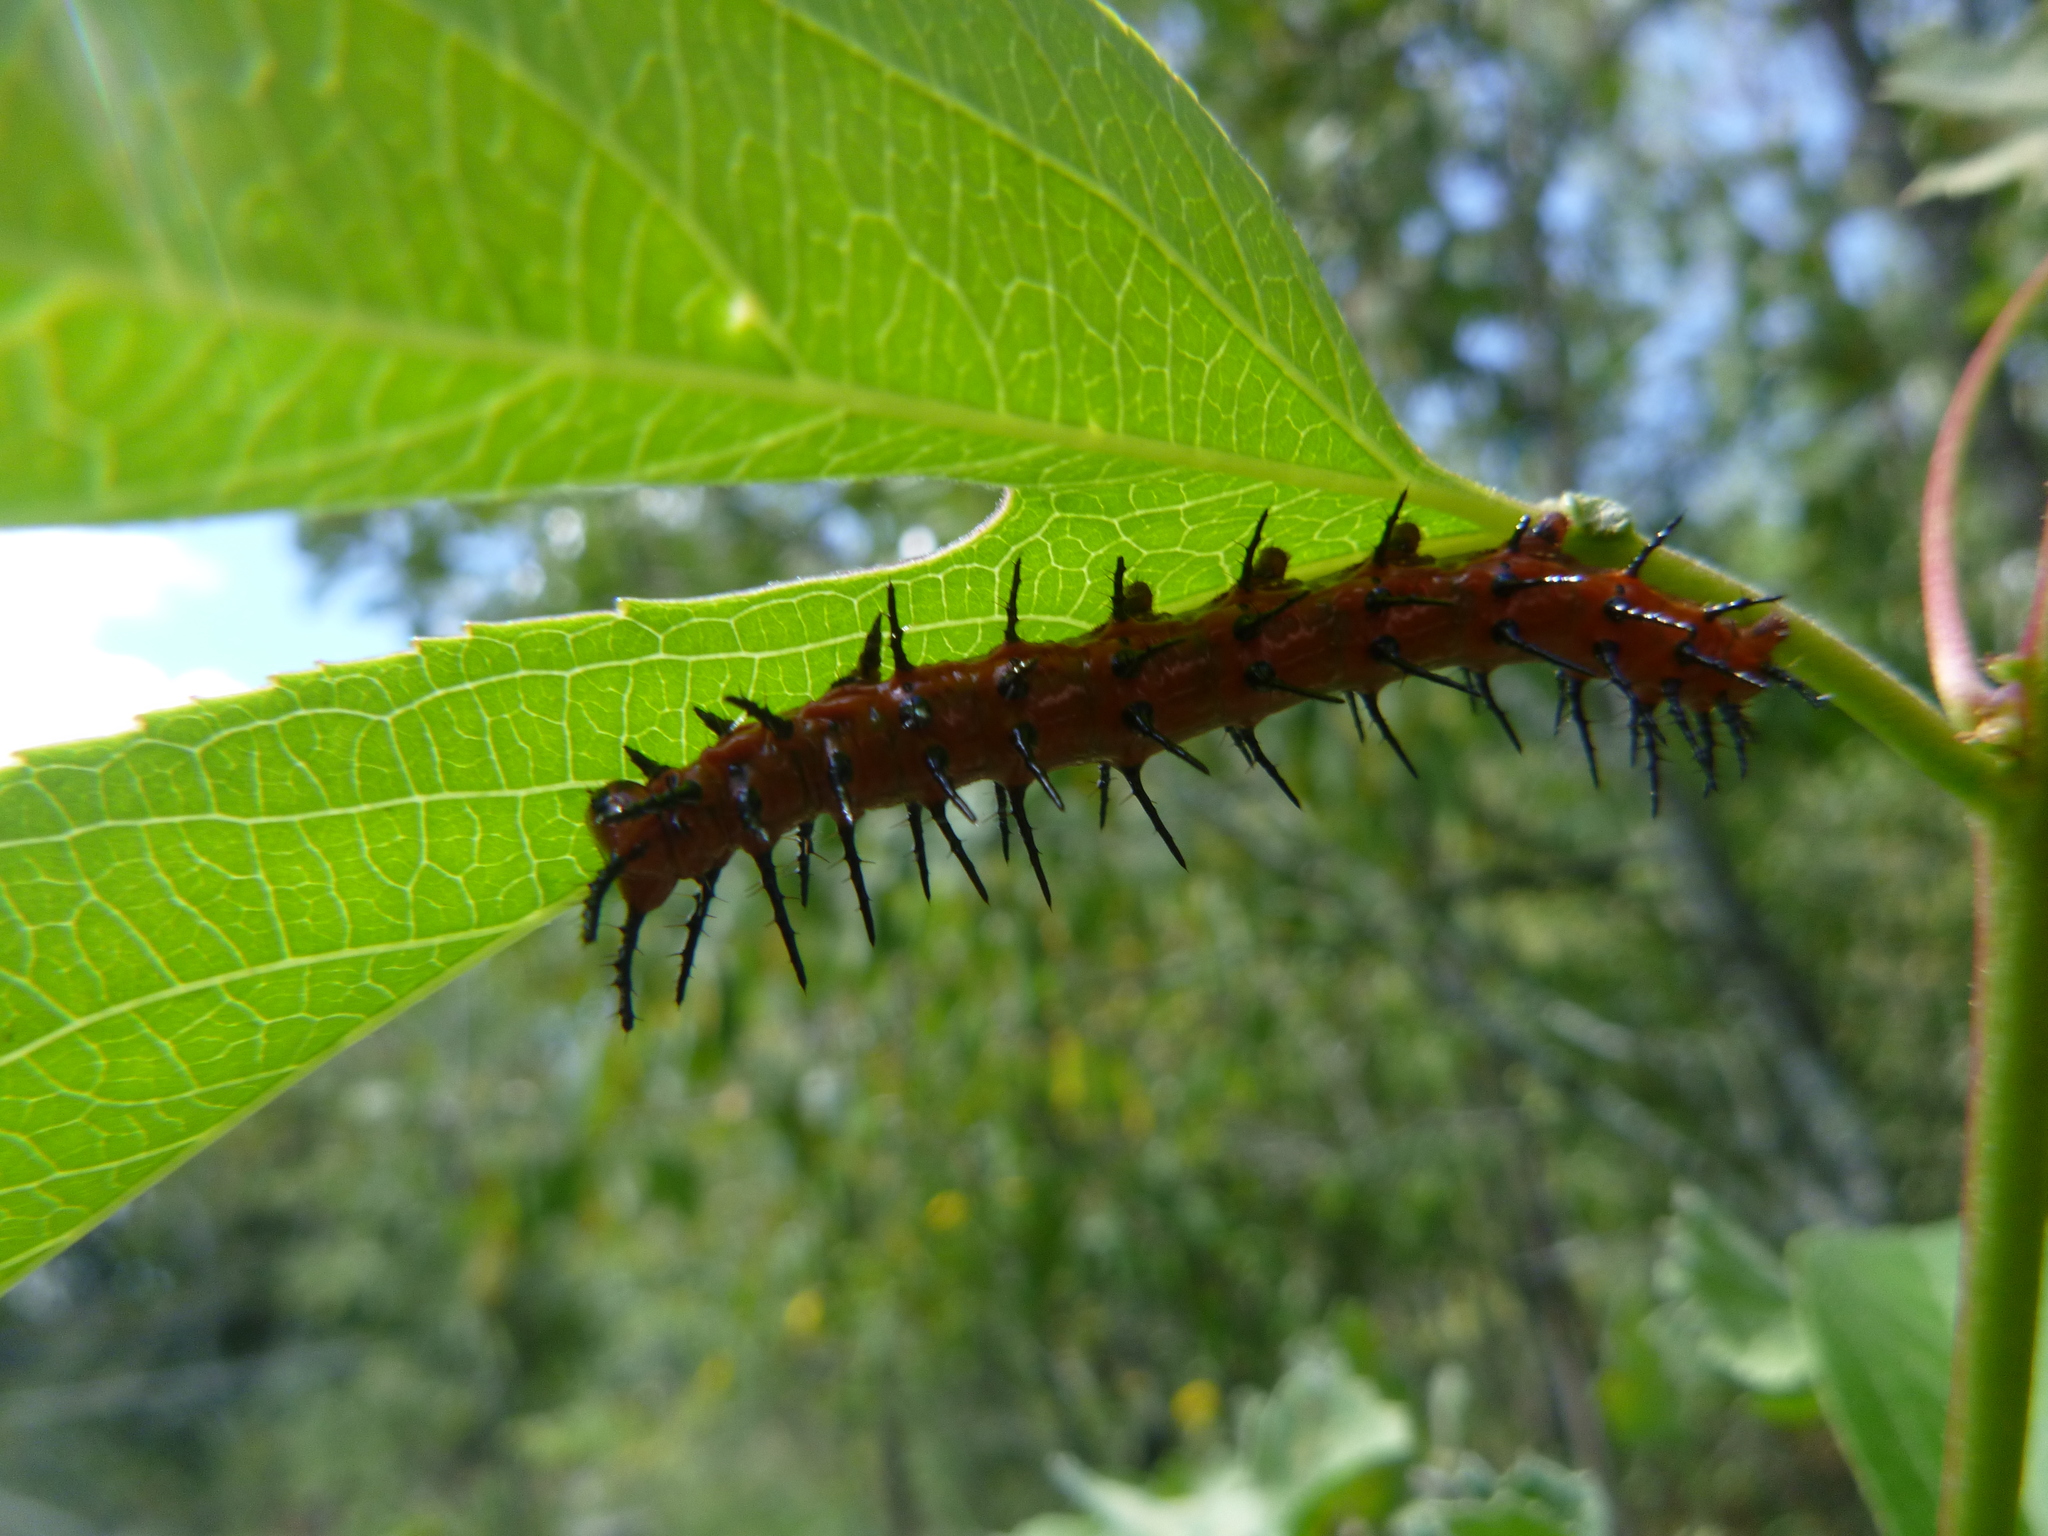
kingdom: Animalia
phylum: Arthropoda
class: Insecta
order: Lepidoptera
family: Nymphalidae
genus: Dione
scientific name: Dione vanillae
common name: Gulf fritillary
